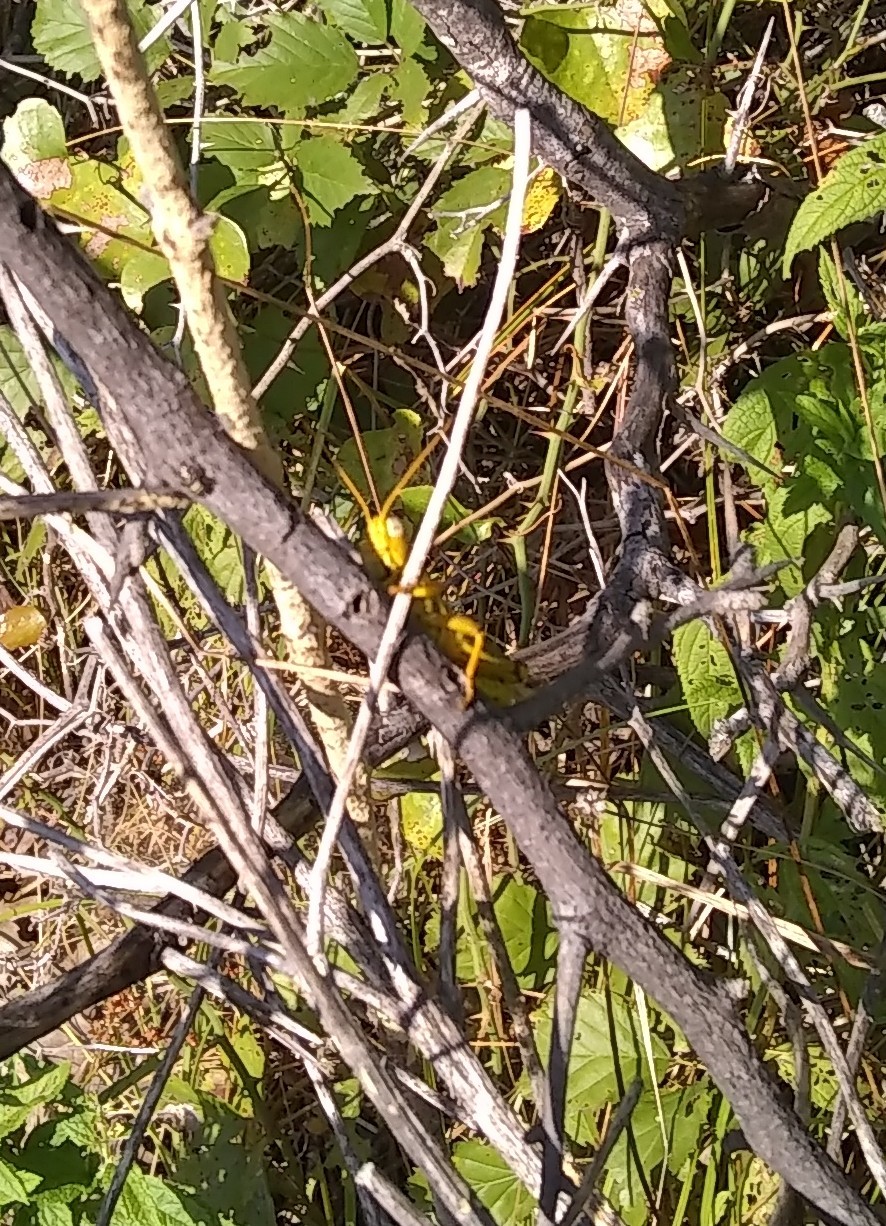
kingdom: Animalia
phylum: Arthropoda
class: Insecta
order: Orthoptera
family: Acrididae
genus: Melanoplus
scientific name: Melanoplus differentialis
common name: Differential grasshopper
